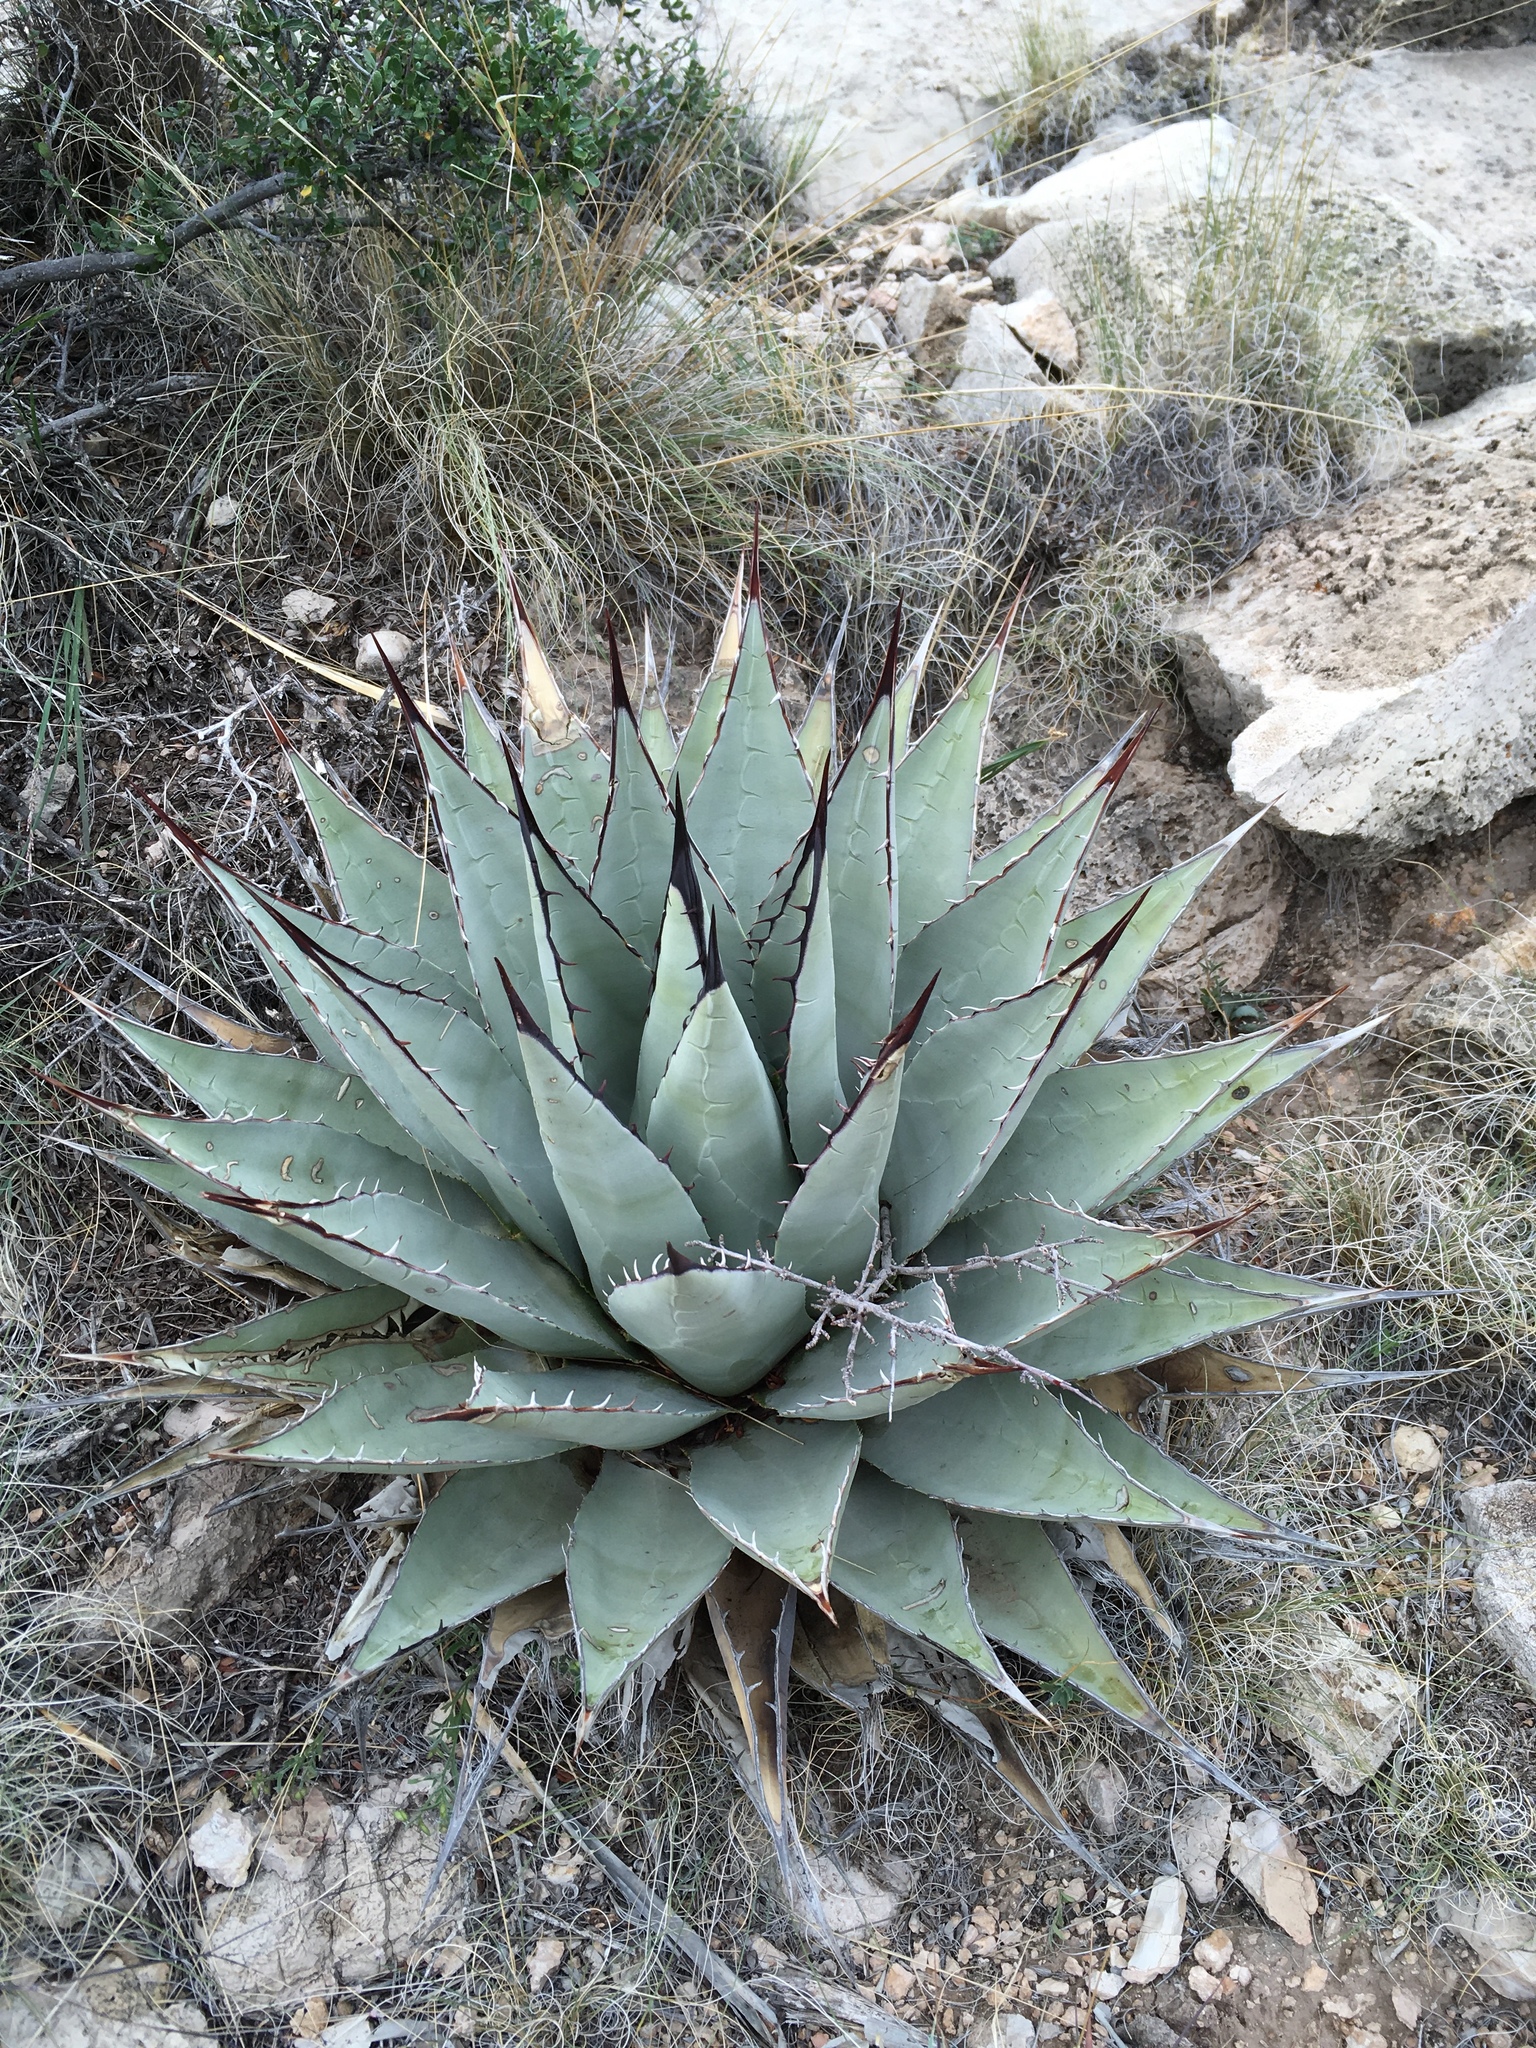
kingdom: Plantae
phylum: Tracheophyta
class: Liliopsida
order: Asparagales
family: Asparagaceae
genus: Agave
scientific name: Agave parryi
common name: Parry's agave
